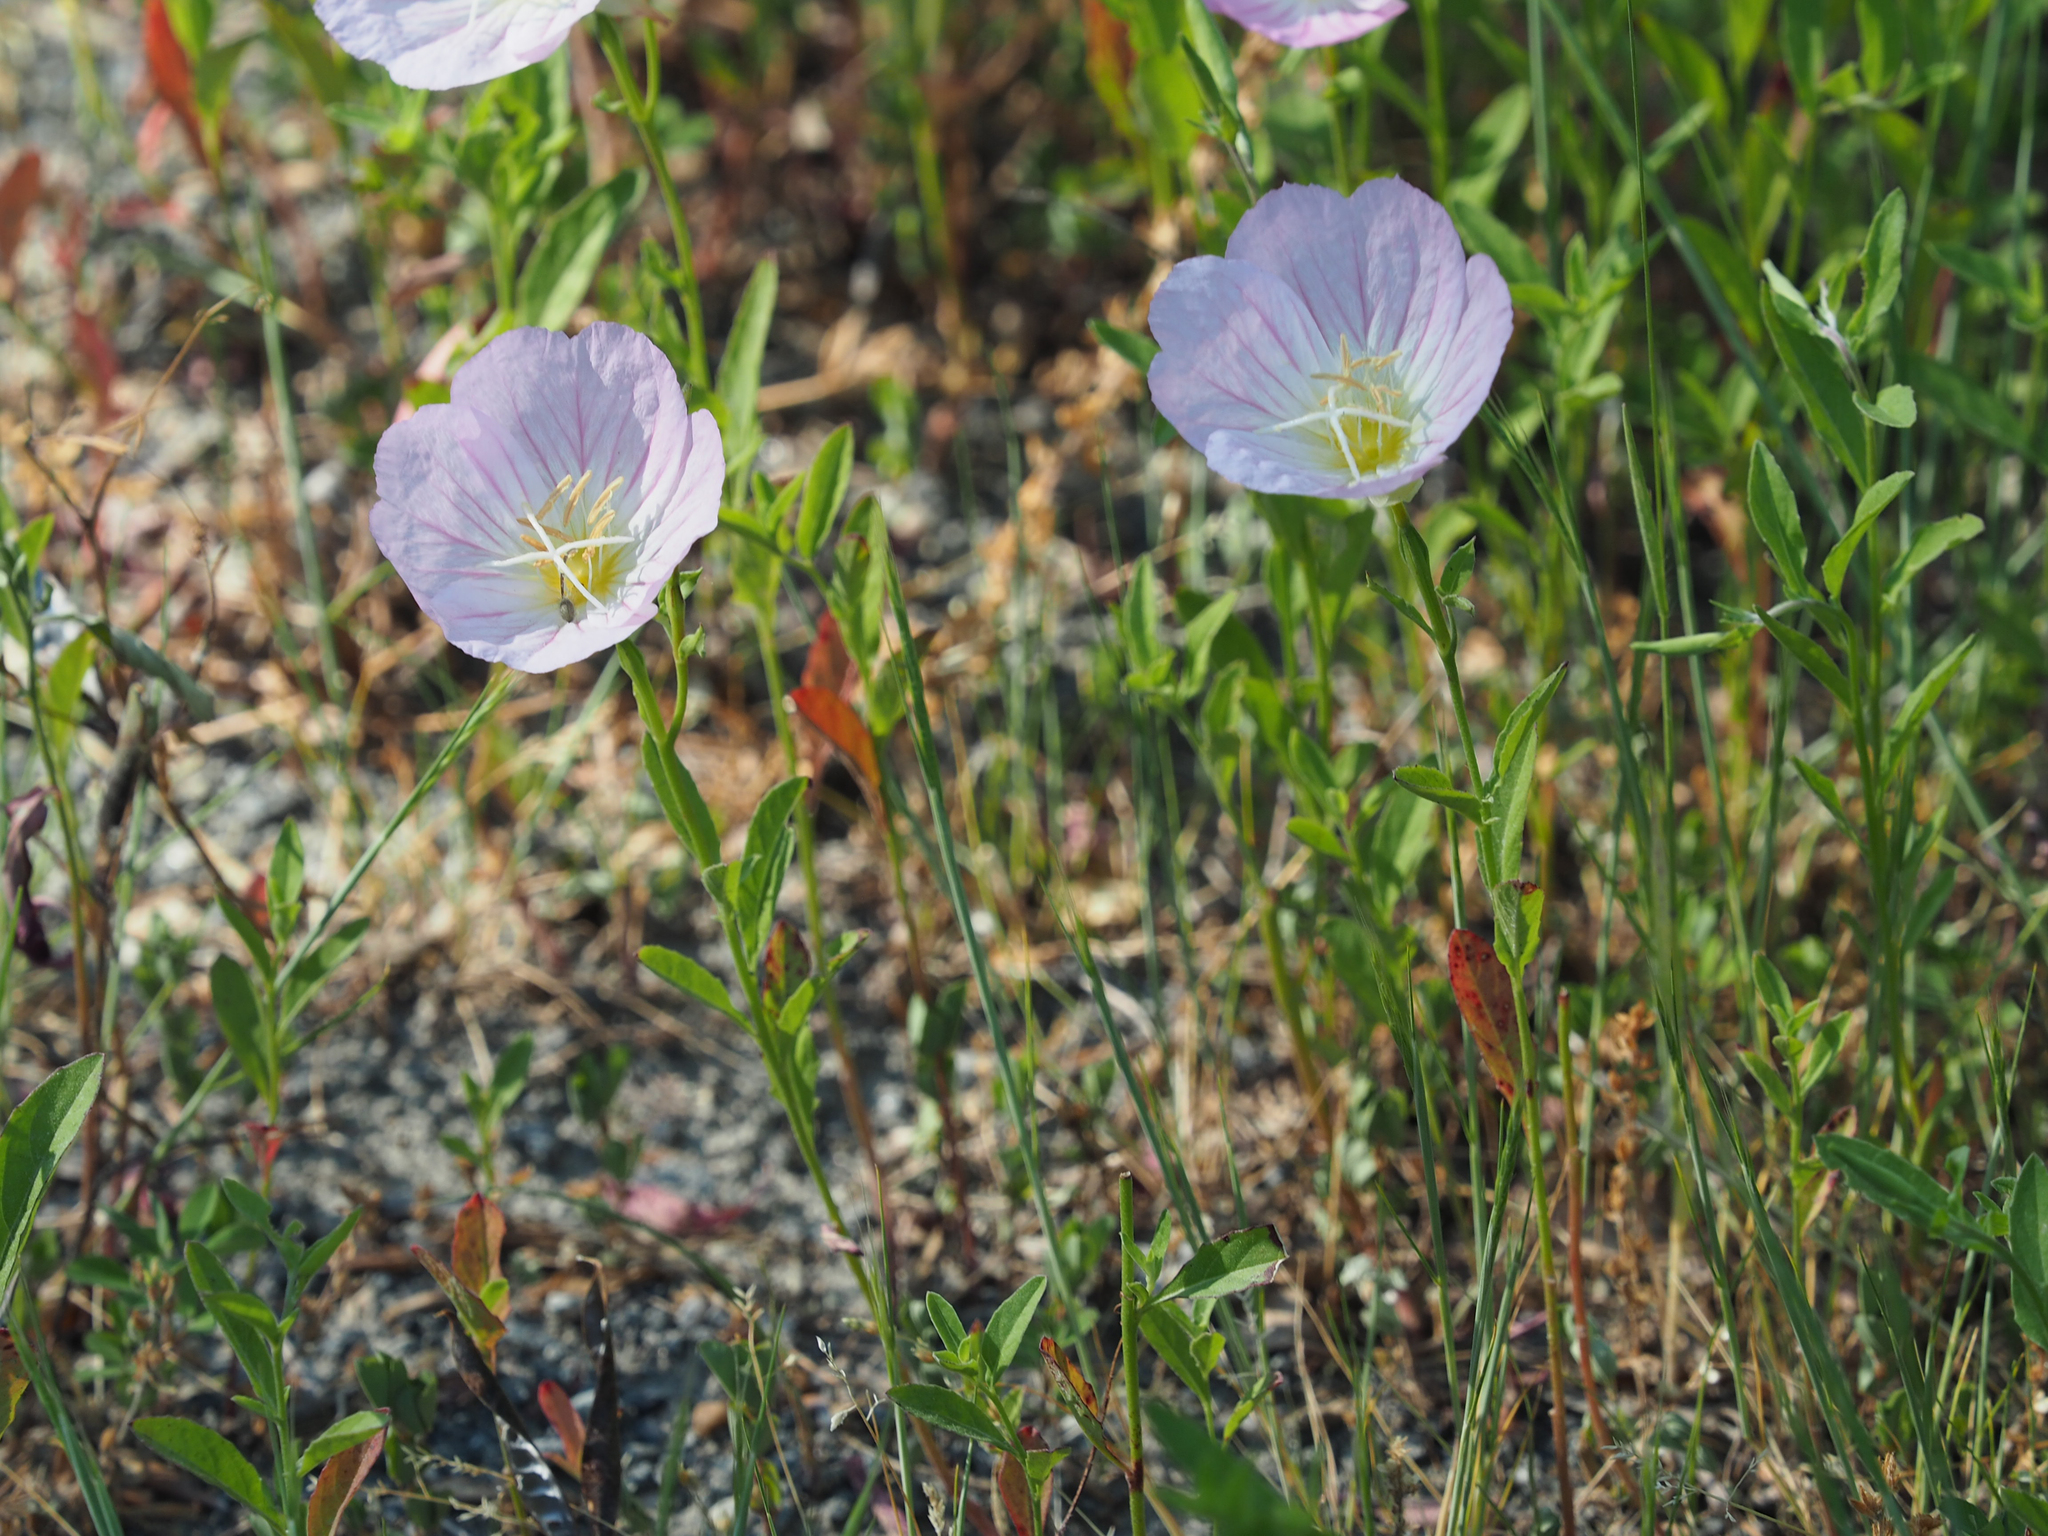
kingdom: Plantae
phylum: Tracheophyta
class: Magnoliopsida
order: Myrtales
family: Onagraceae
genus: Oenothera
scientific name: Oenothera speciosa
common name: White evening-primrose
